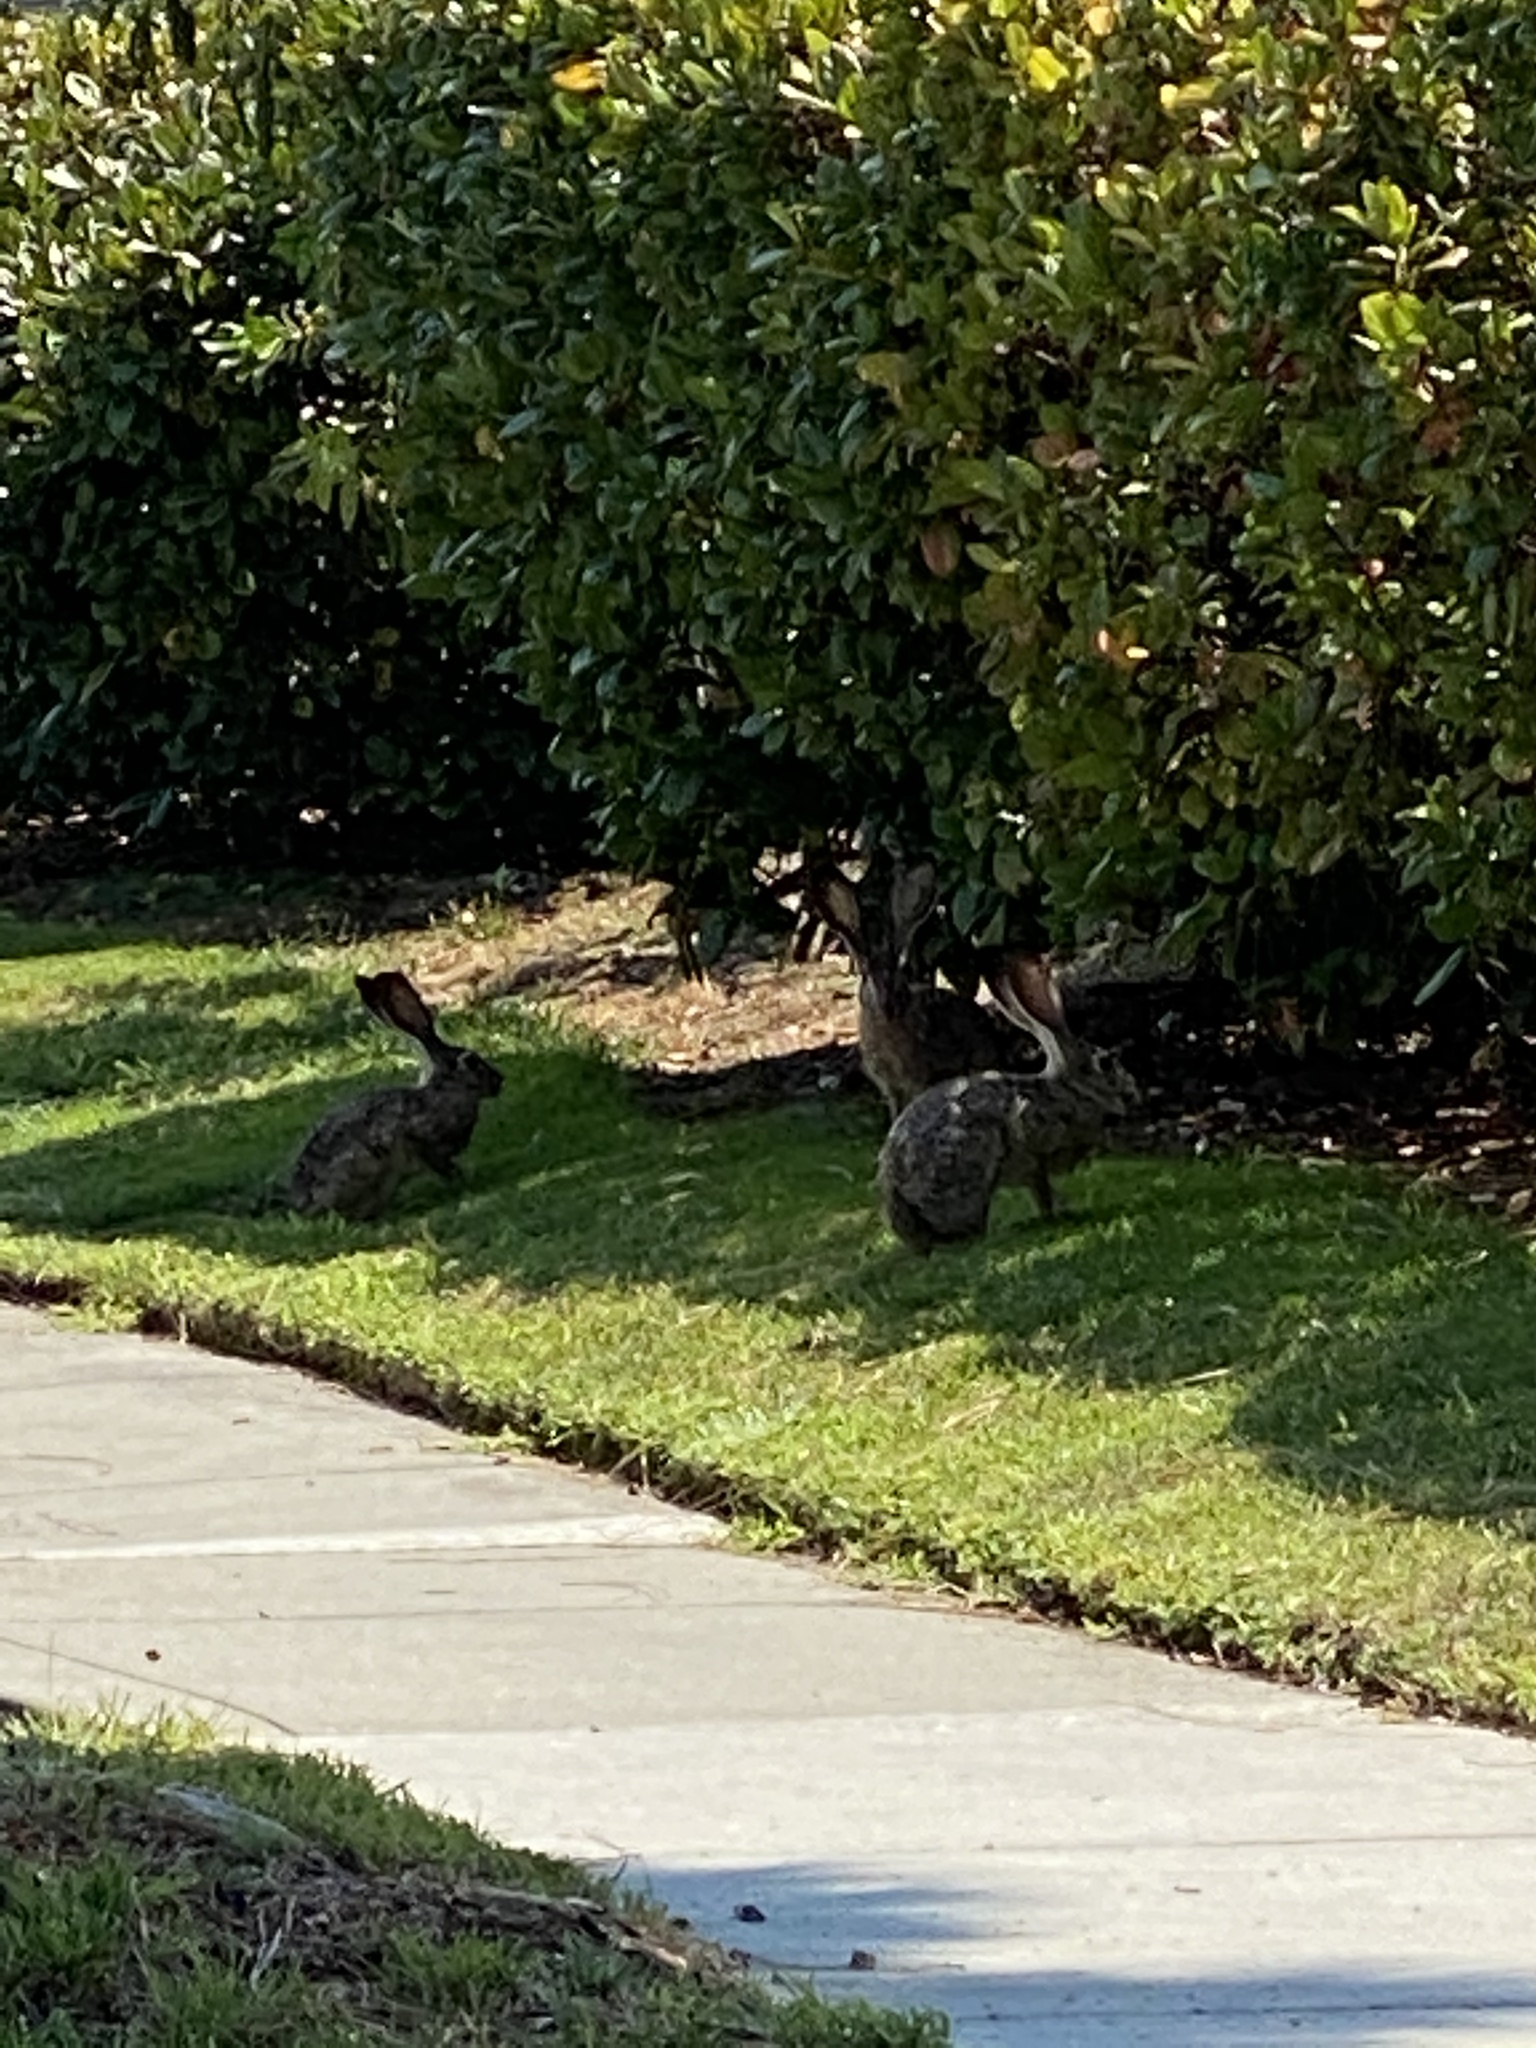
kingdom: Animalia
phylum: Chordata
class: Mammalia
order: Lagomorpha
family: Leporidae
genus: Lepus
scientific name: Lepus californicus
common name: Black-tailed jackrabbit
